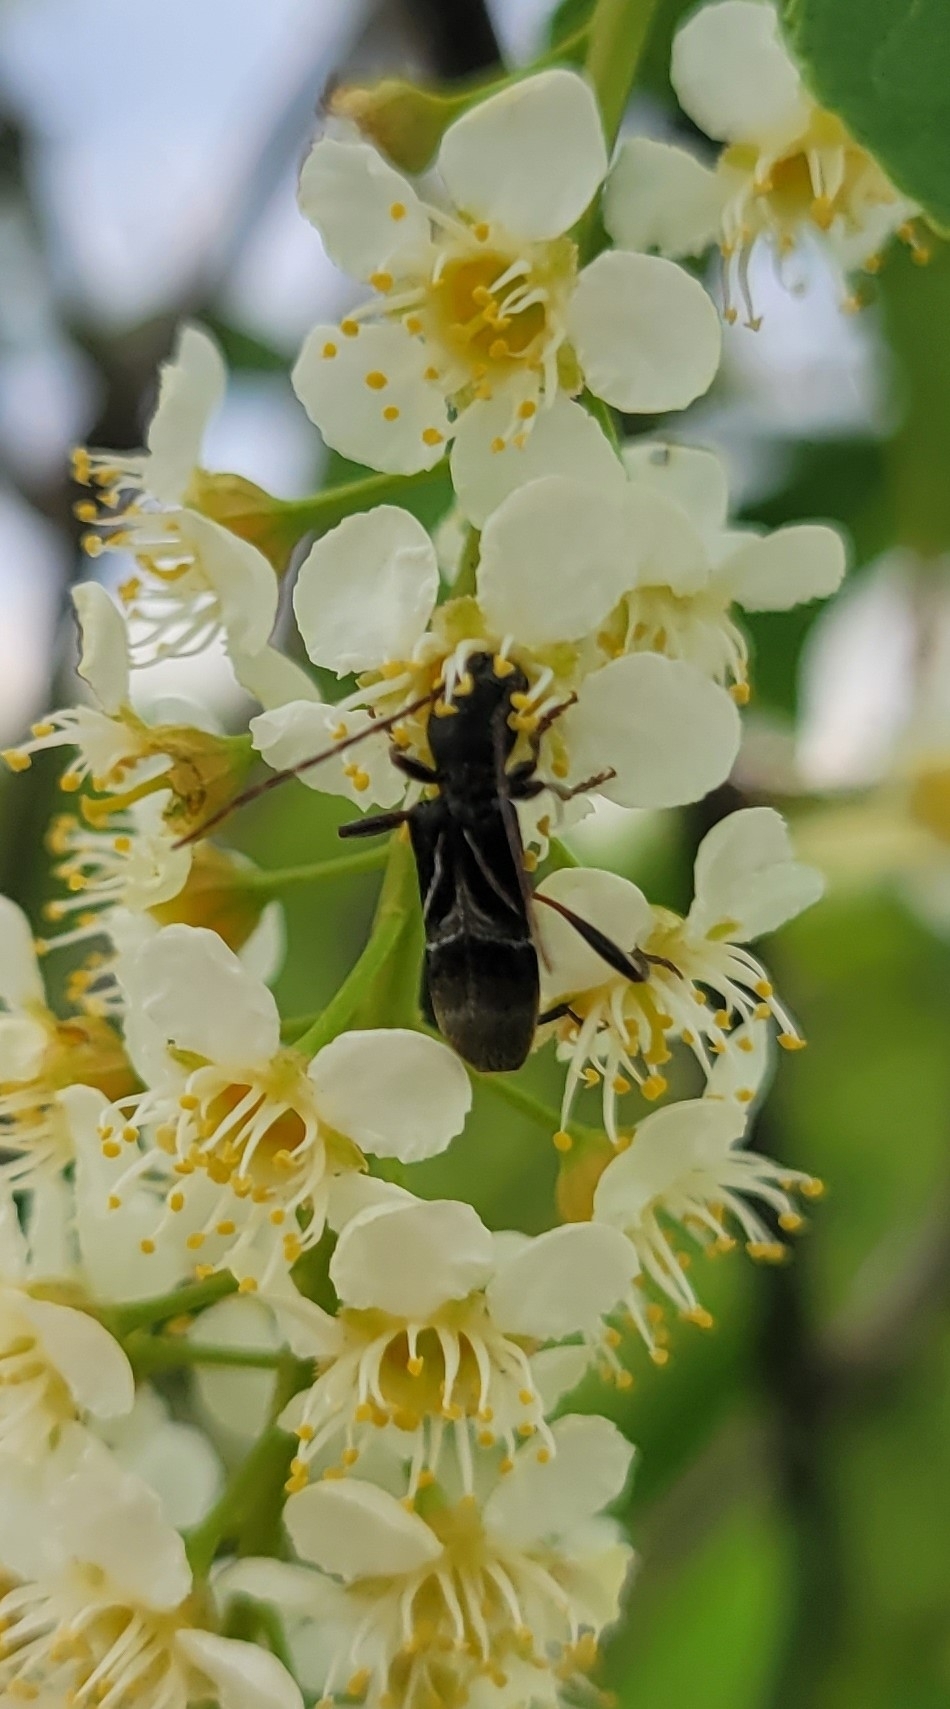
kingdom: Animalia
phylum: Arthropoda
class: Insecta
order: Coleoptera
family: Cerambycidae
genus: Cyrtophorus
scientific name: Cyrtophorus verrucosus
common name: Ant-like longhorn beetle
